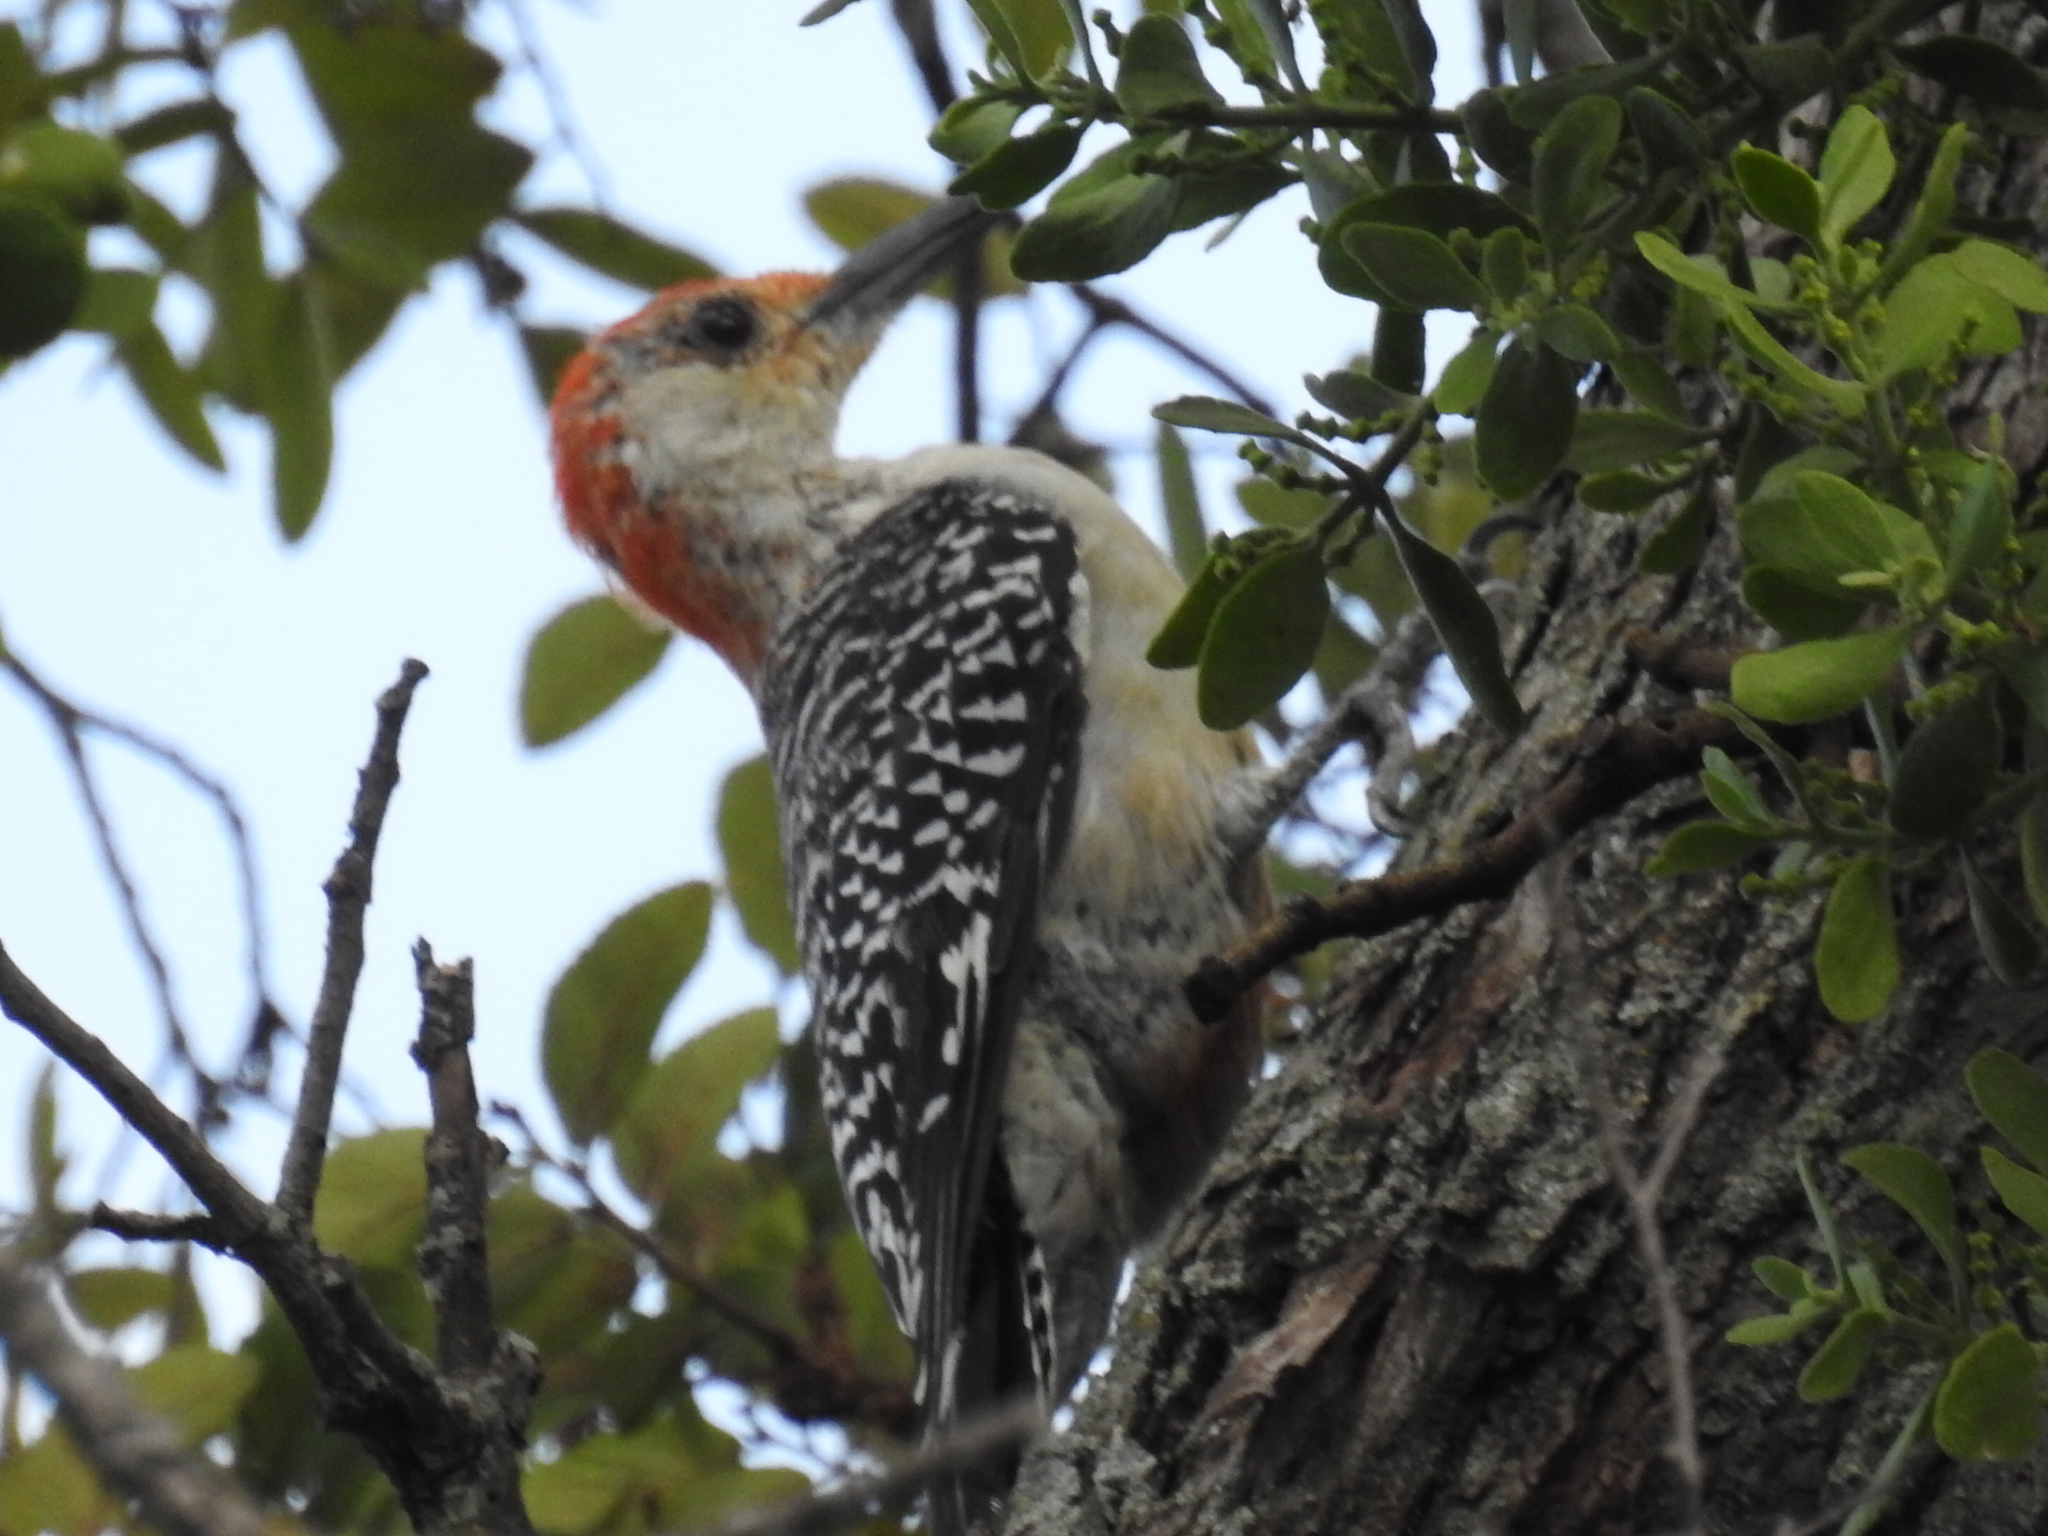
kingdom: Animalia
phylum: Chordata
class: Aves
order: Piciformes
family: Picidae
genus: Melanerpes
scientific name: Melanerpes carolinus
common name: Red-bellied woodpecker
